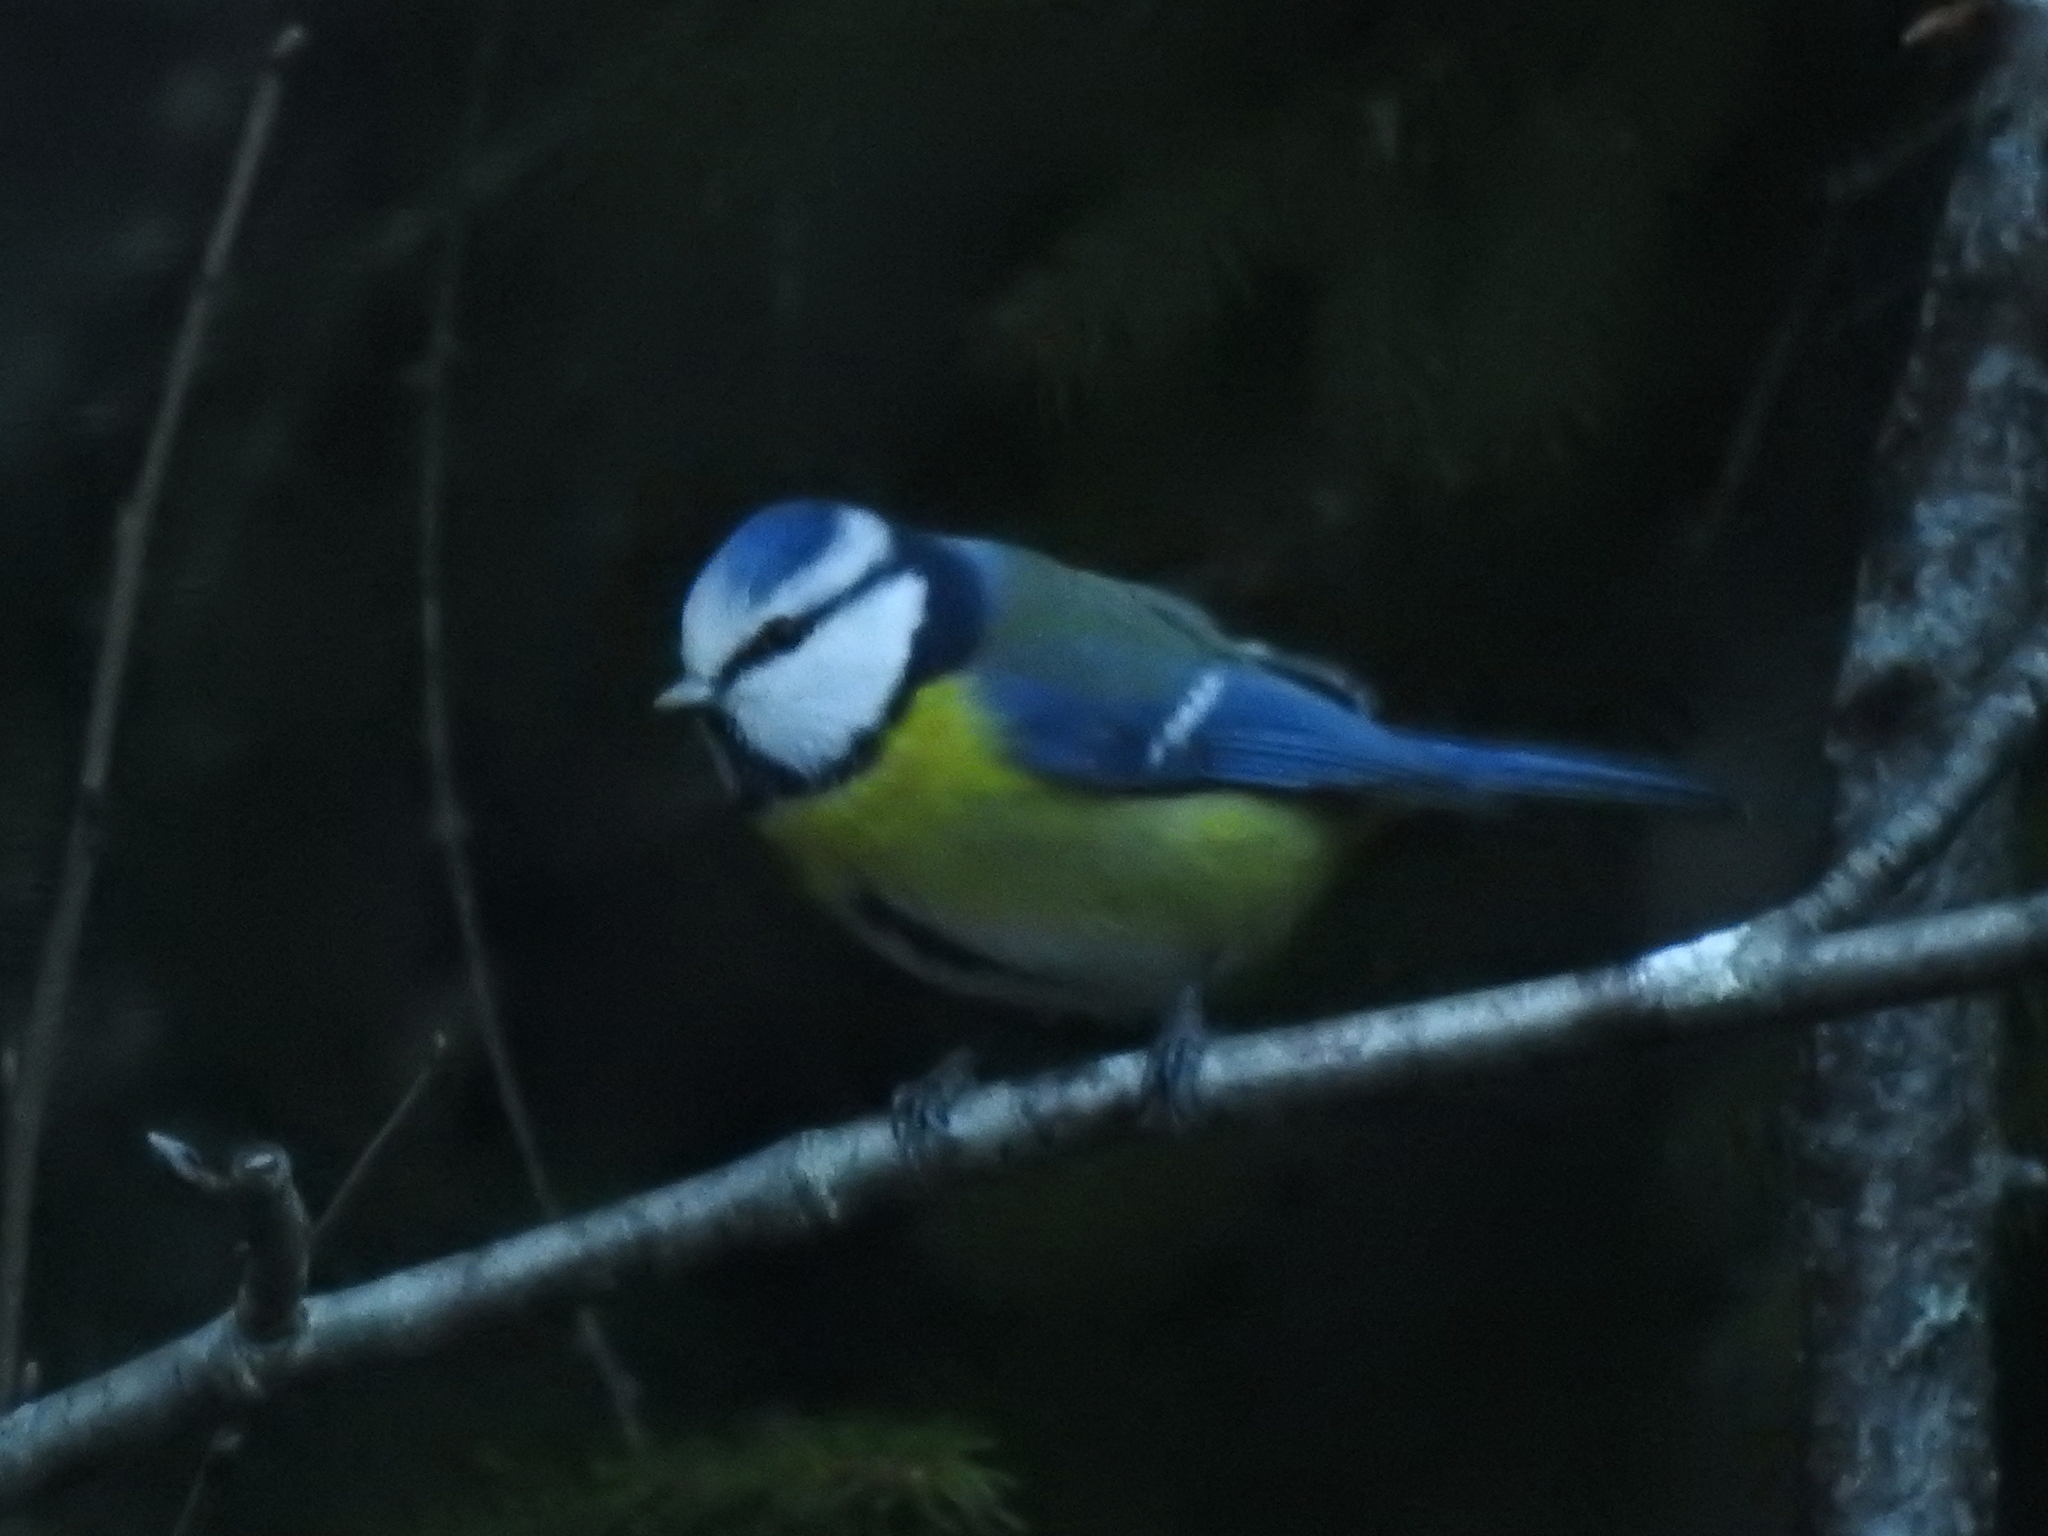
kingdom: Animalia
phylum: Chordata
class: Aves
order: Passeriformes
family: Paridae
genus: Cyanistes
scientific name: Cyanistes caeruleus
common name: Eurasian blue tit
